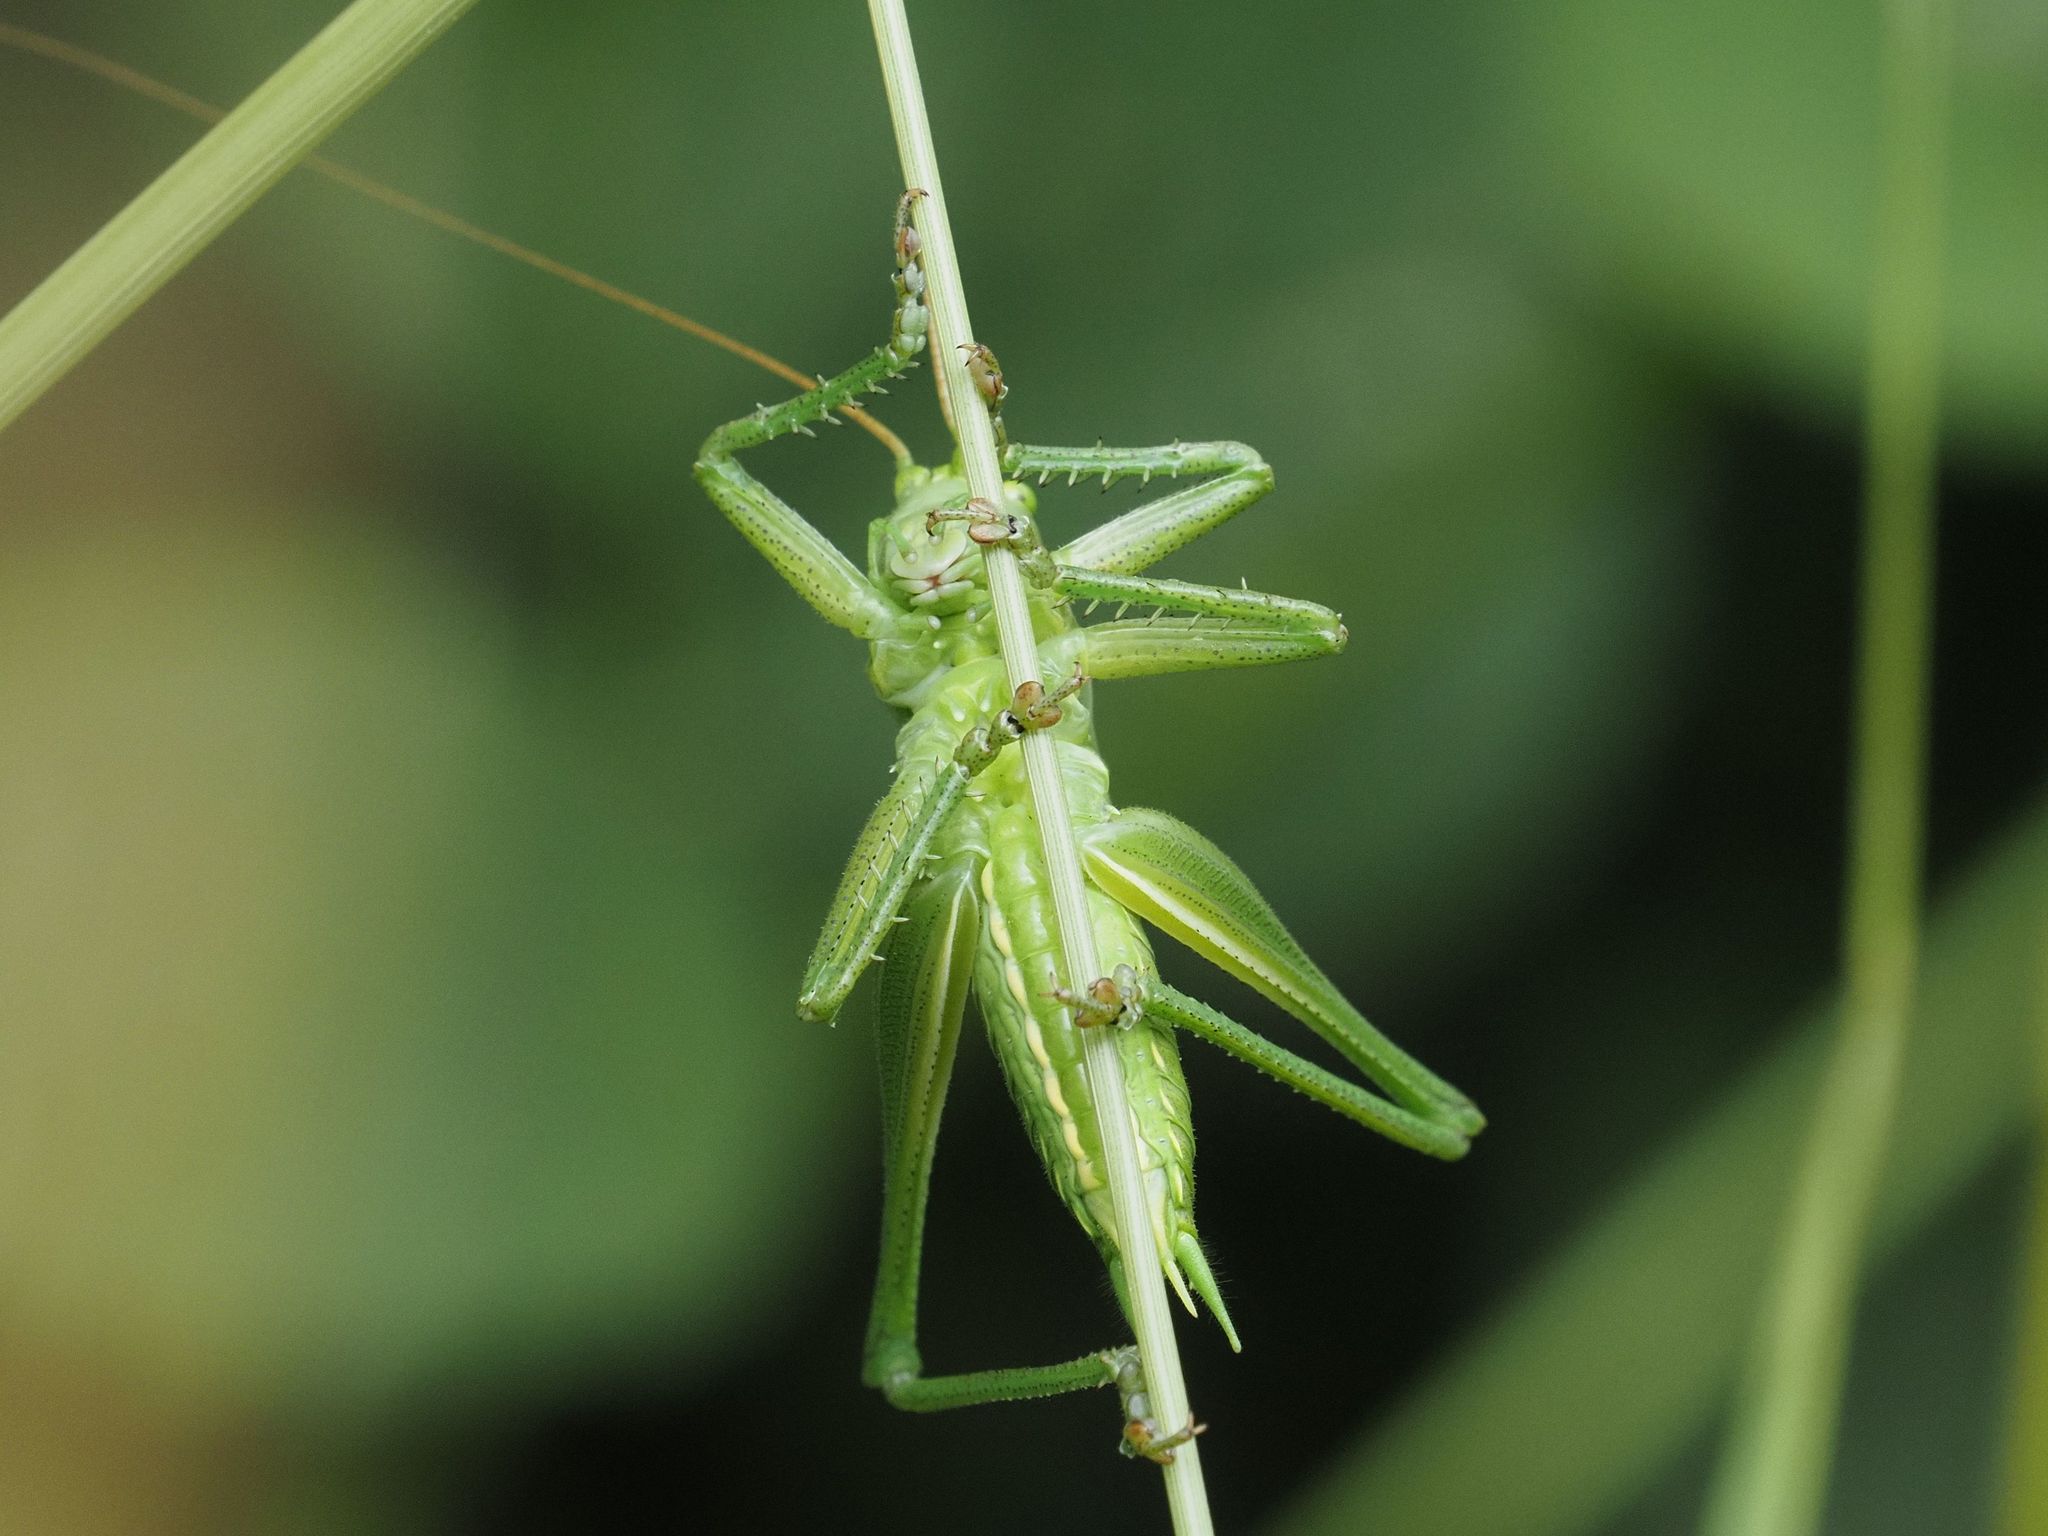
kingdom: Animalia
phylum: Arthropoda
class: Insecta
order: Orthoptera
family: Tettigoniidae
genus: Tettigonia
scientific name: Tettigonia viridissima
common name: Great green bush-cricket
